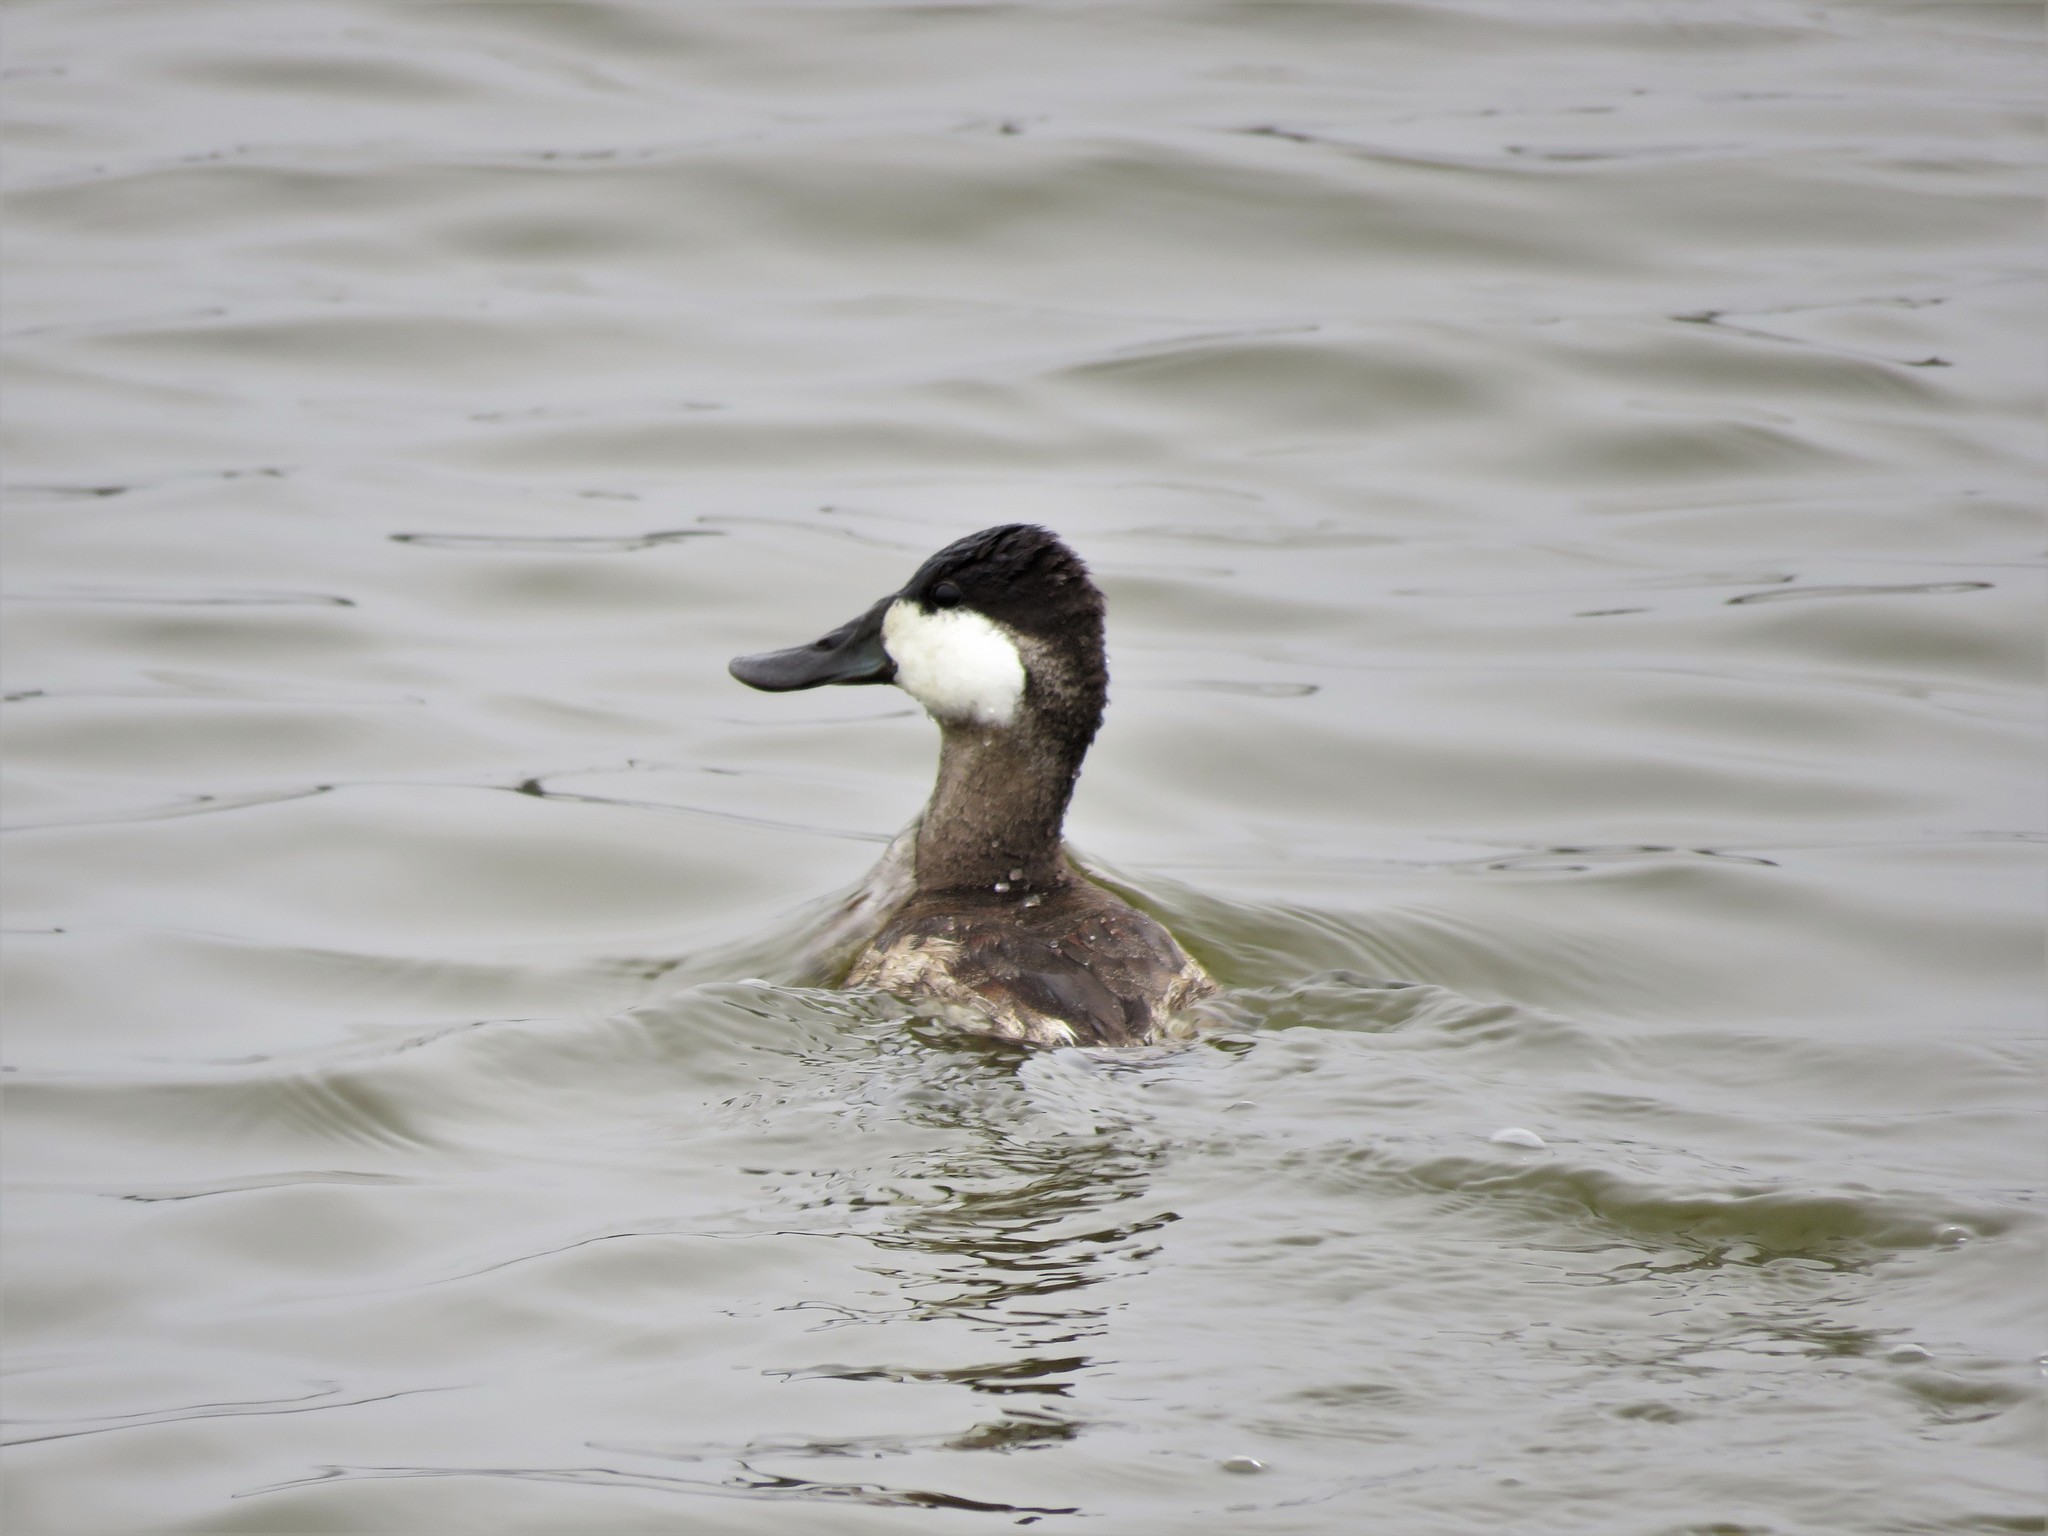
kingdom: Animalia
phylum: Chordata
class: Aves
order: Anseriformes
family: Anatidae
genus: Oxyura
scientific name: Oxyura jamaicensis
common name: Ruddy duck
